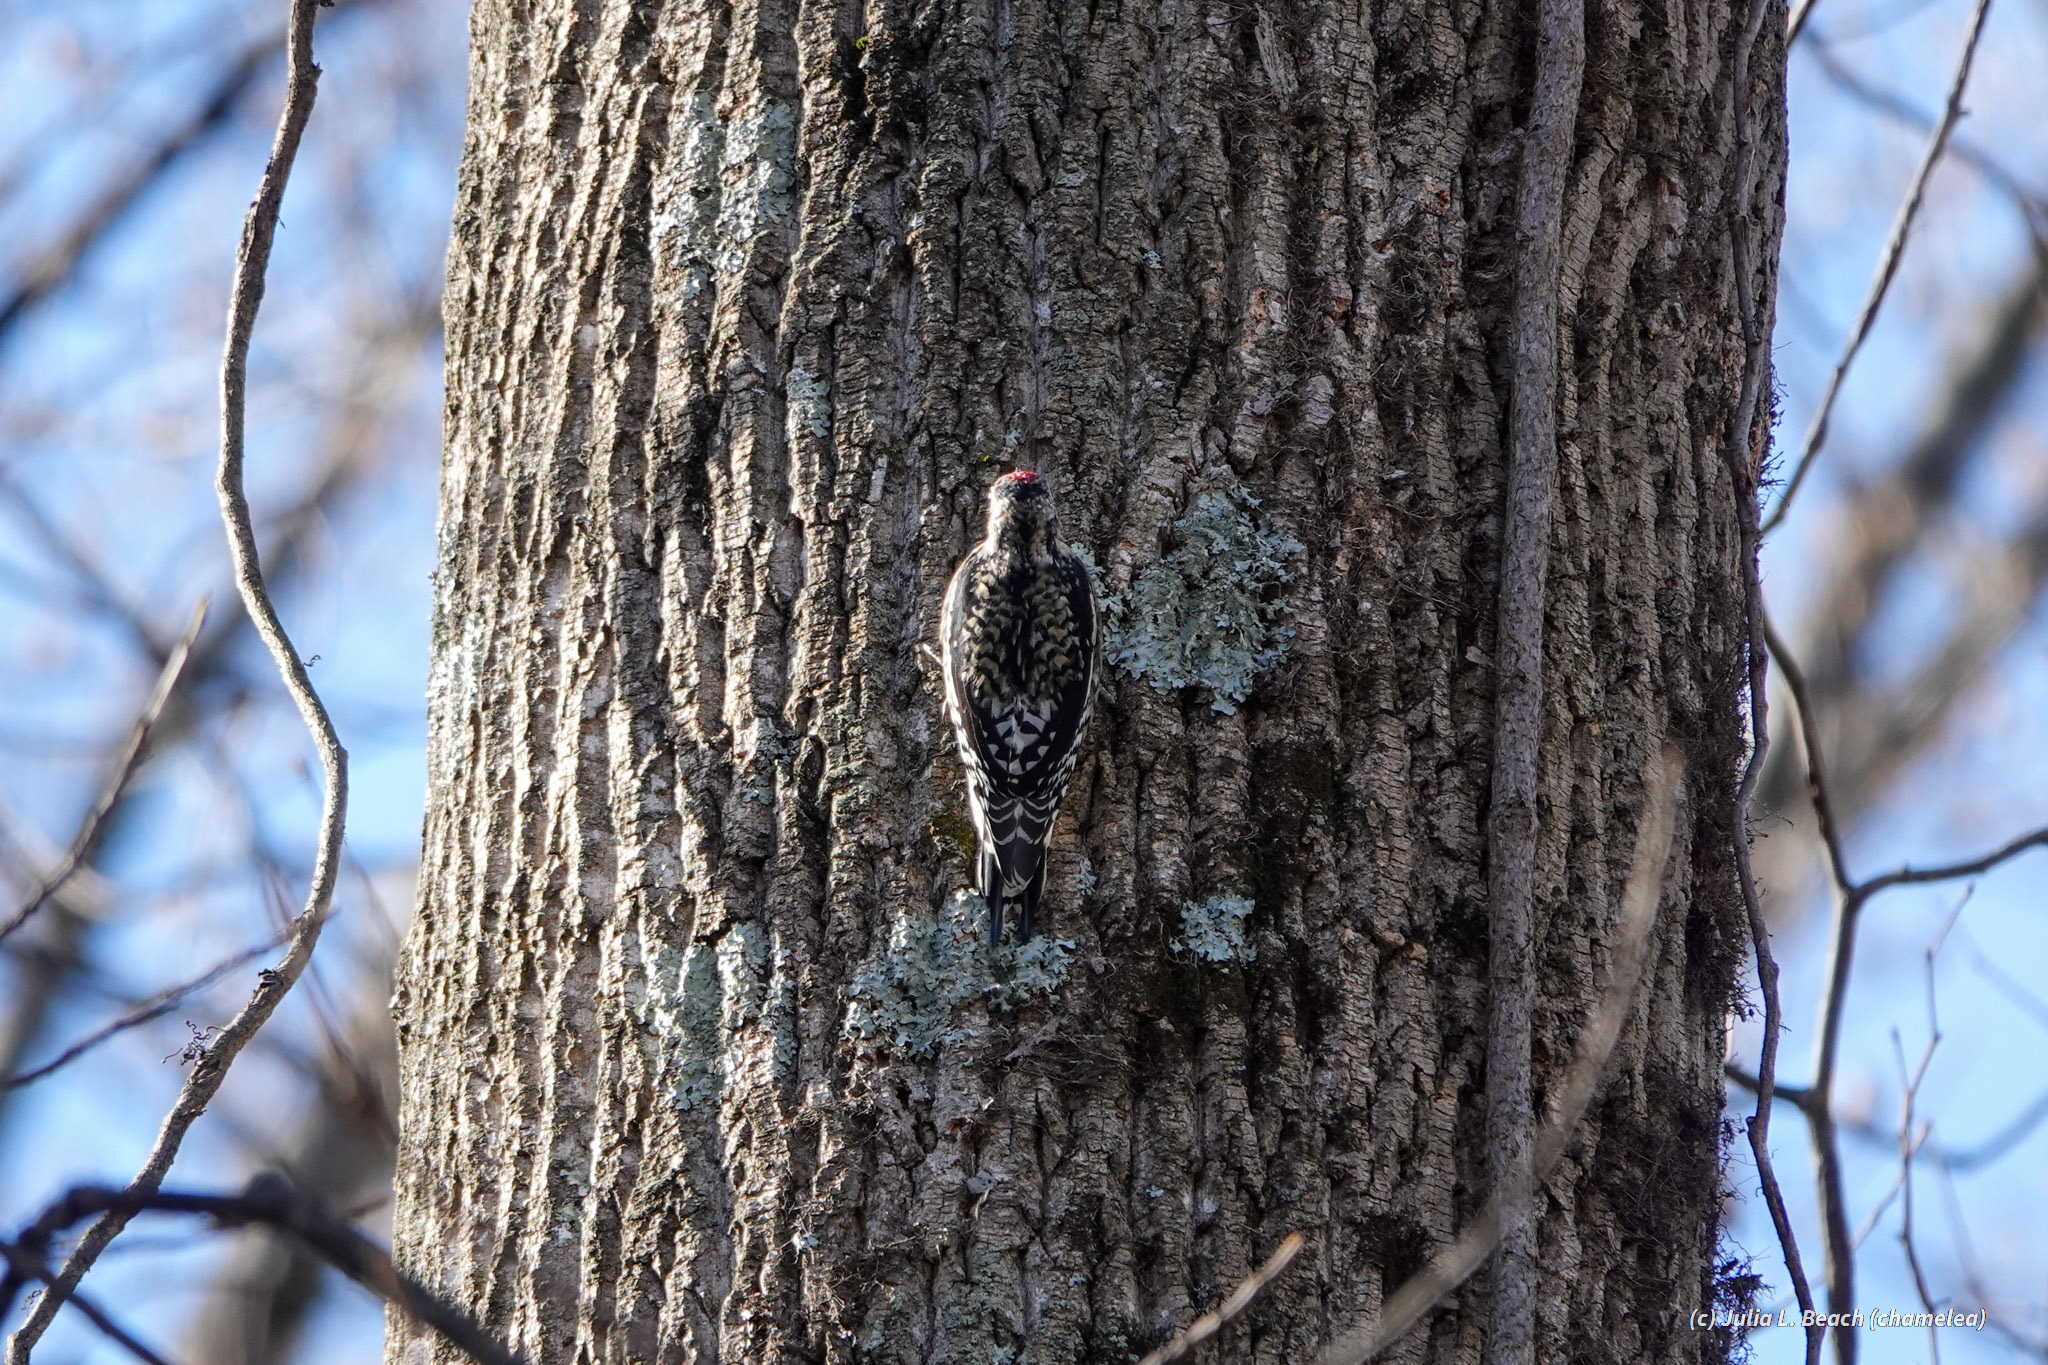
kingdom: Animalia
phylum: Chordata
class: Aves
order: Piciformes
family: Picidae
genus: Sphyrapicus
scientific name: Sphyrapicus varius
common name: Yellow-bellied sapsucker
